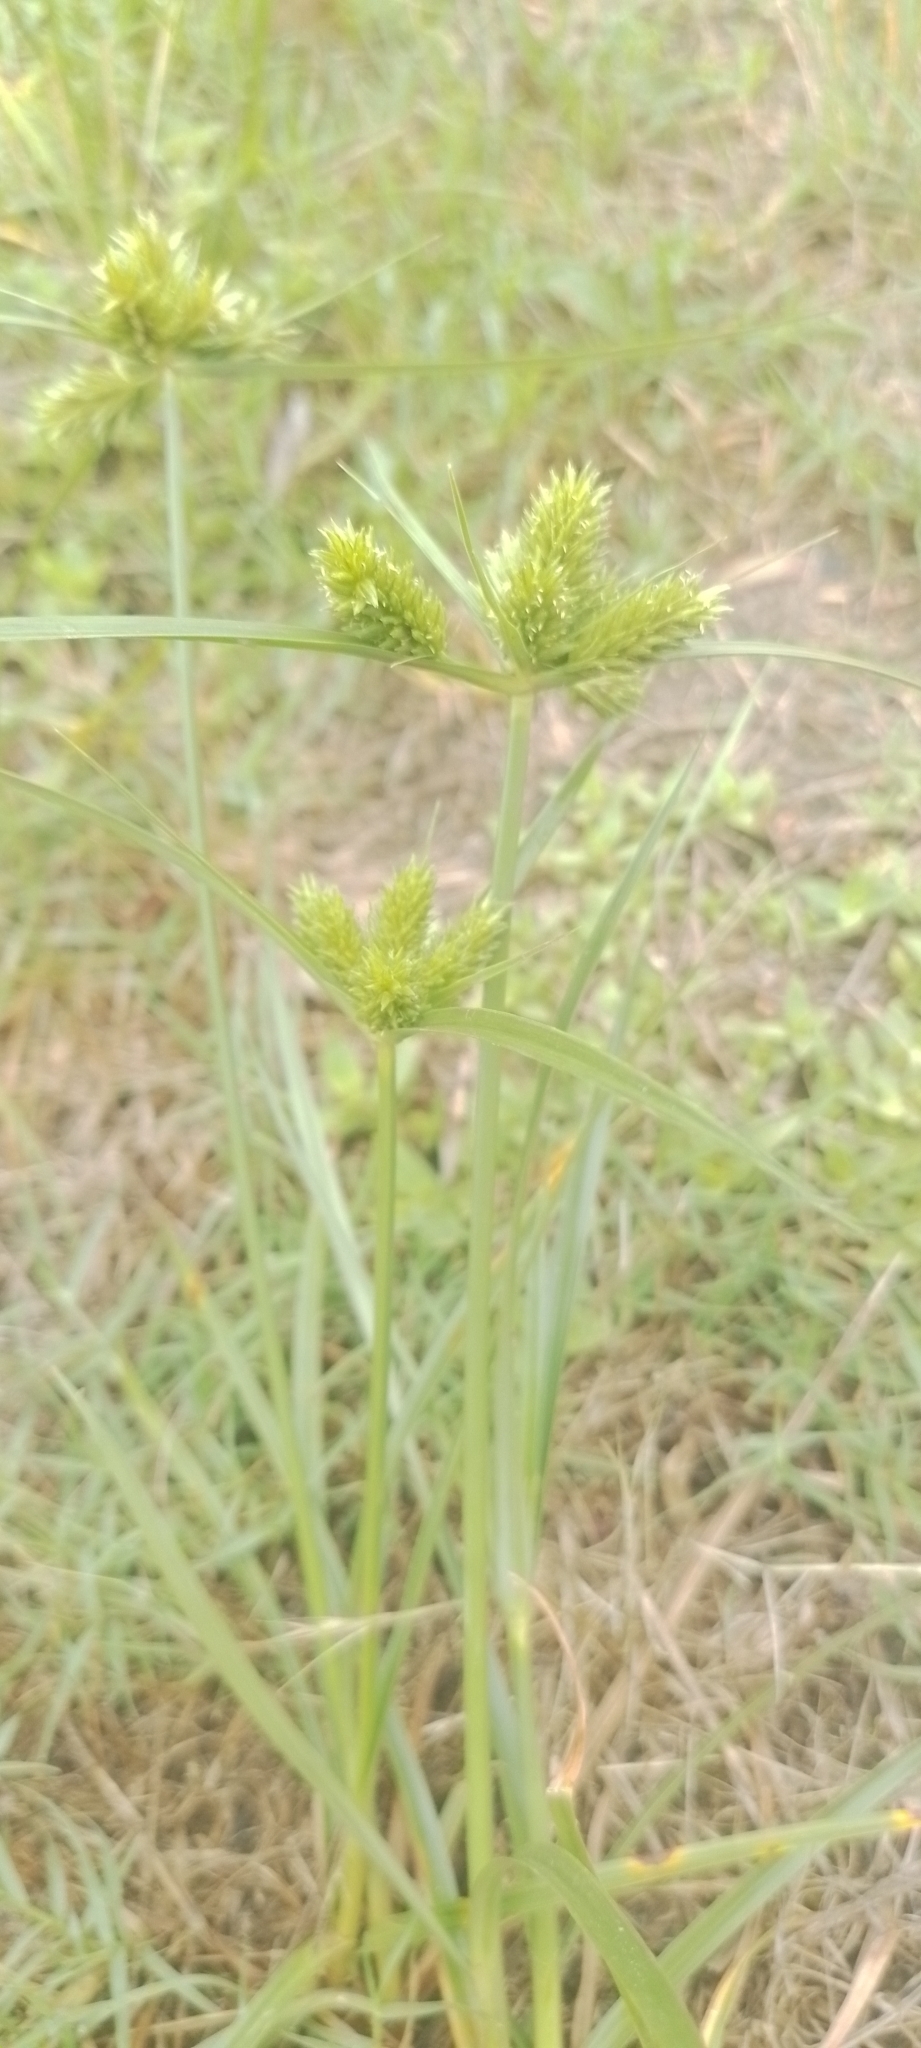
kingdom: Plantae
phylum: Tracheophyta
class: Liliopsida
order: Poales
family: Cyperaceae
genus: Cyperus
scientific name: Cyperus aggregatus
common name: Inflatedscale flatsedge
